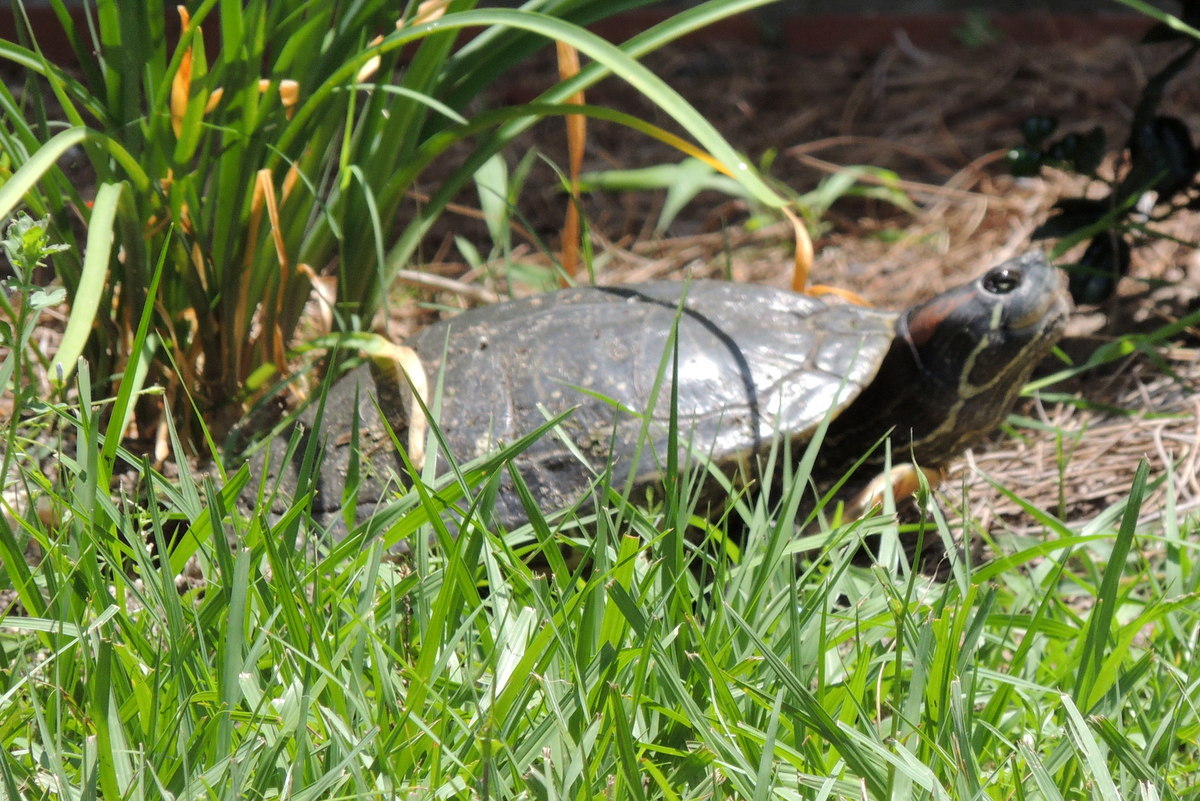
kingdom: Animalia
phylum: Chordata
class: Testudines
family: Emydidae
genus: Trachemys
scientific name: Trachemys scripta
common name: Slider
